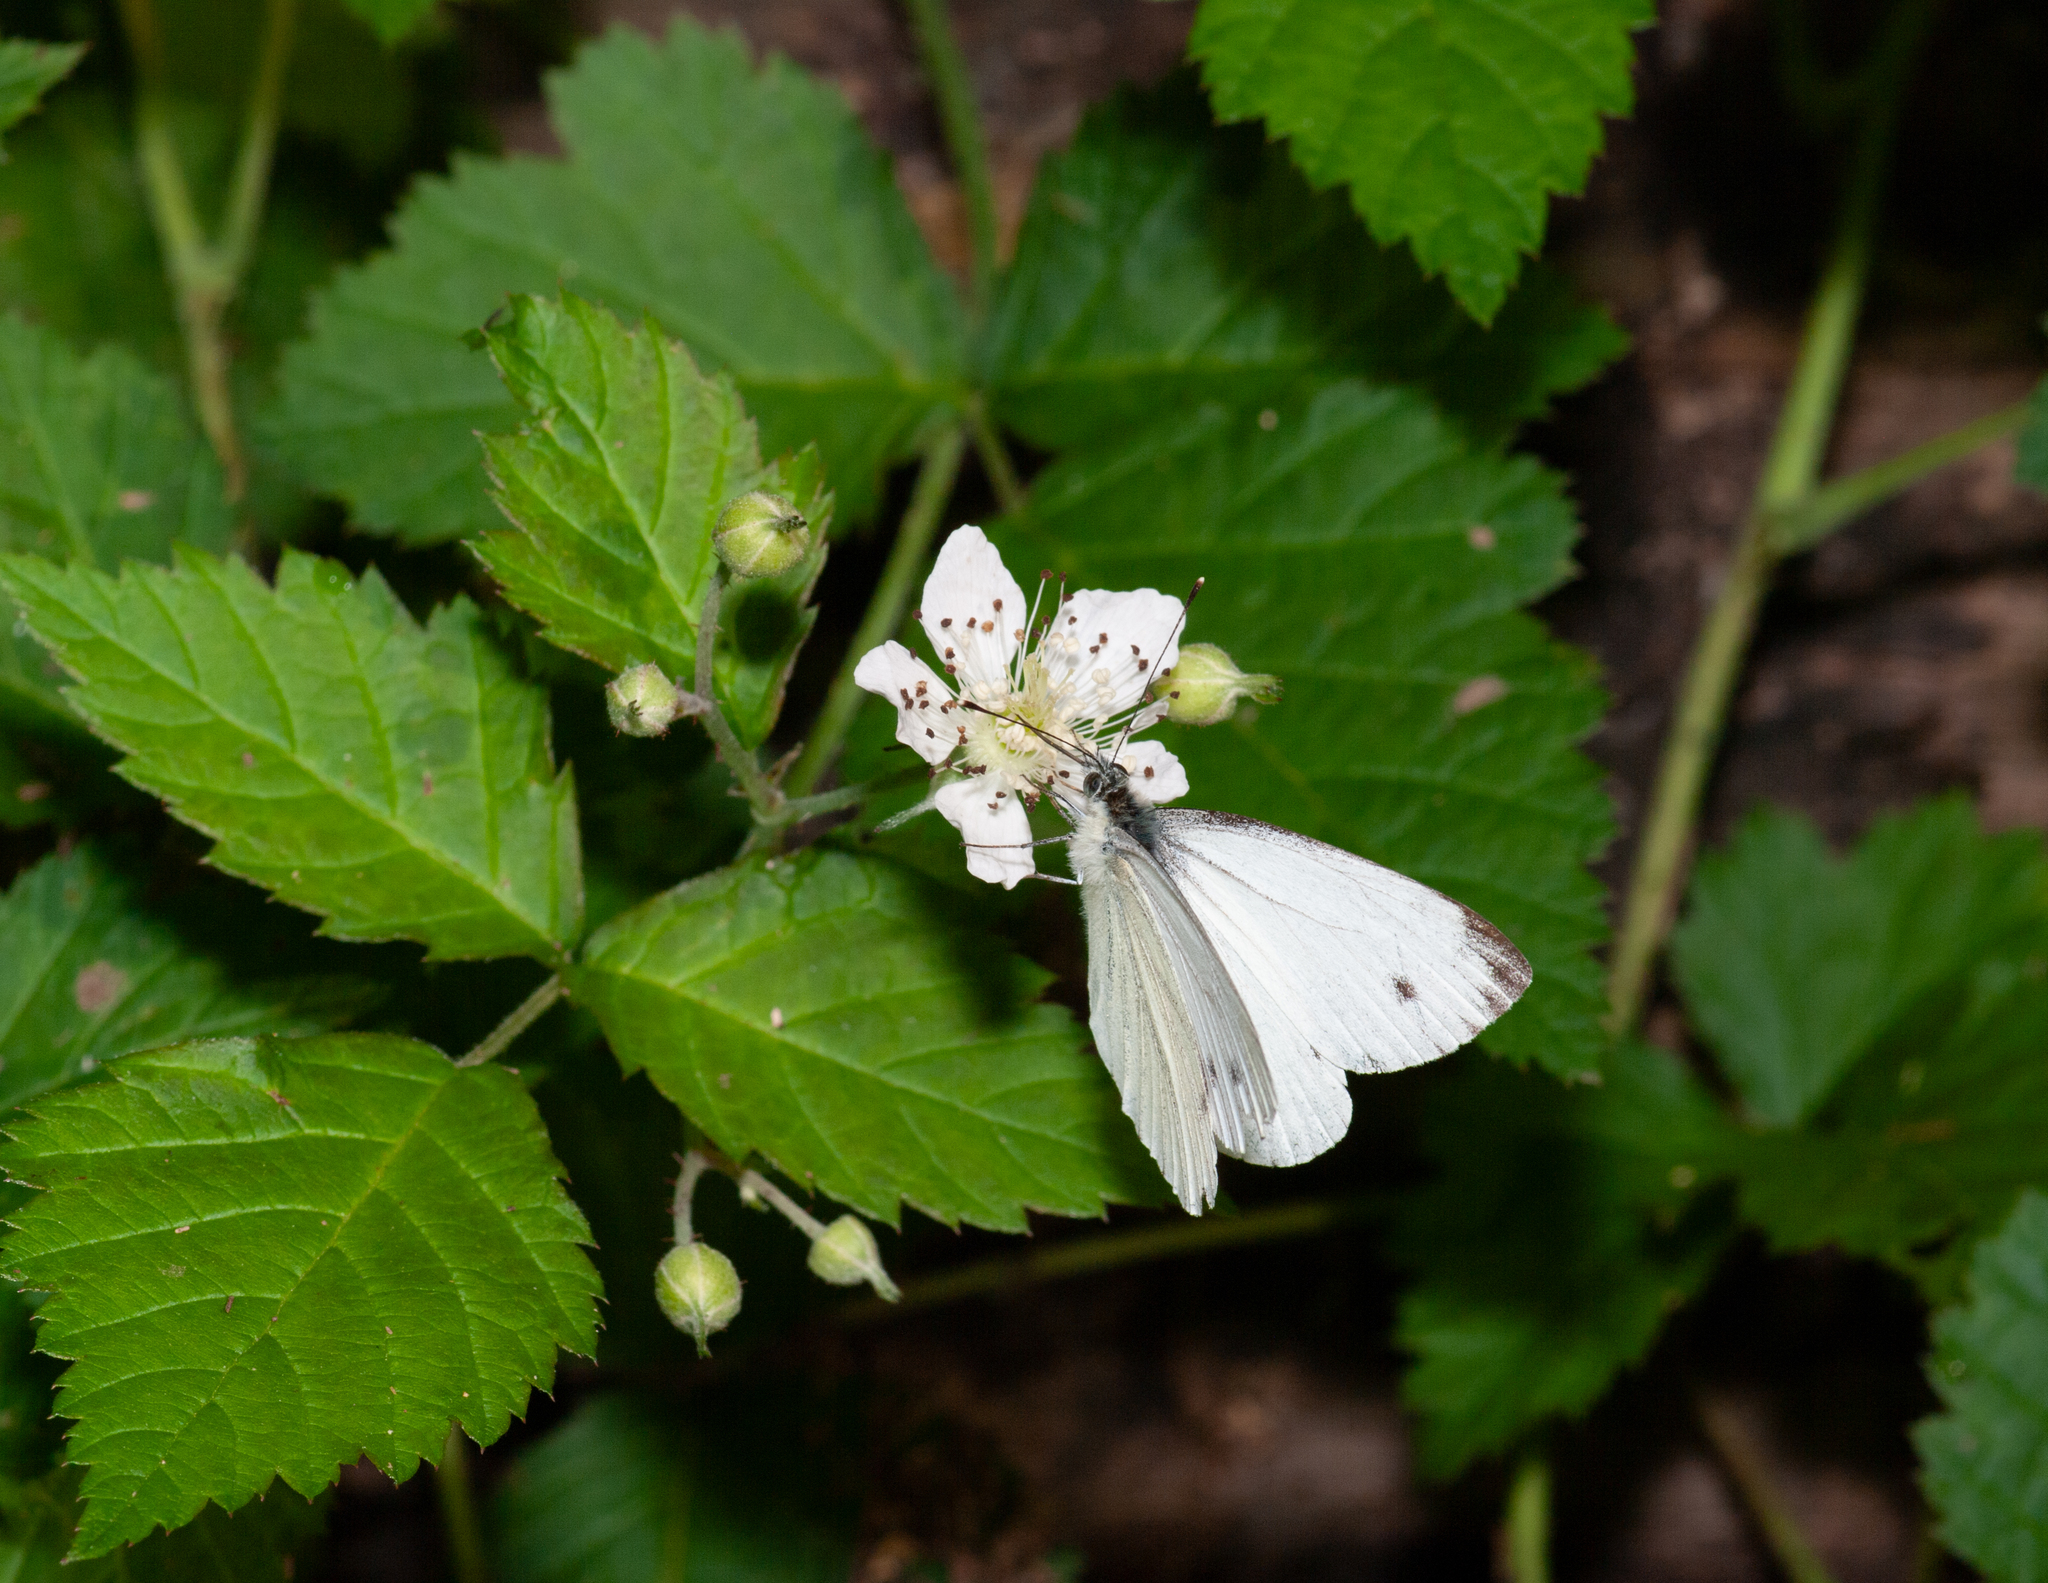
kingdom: Animalia
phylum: Arthropoda
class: Insecta
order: Lepidoptera
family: Pieridae
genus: Pieris
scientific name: Pieris napi
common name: Green-veined white
